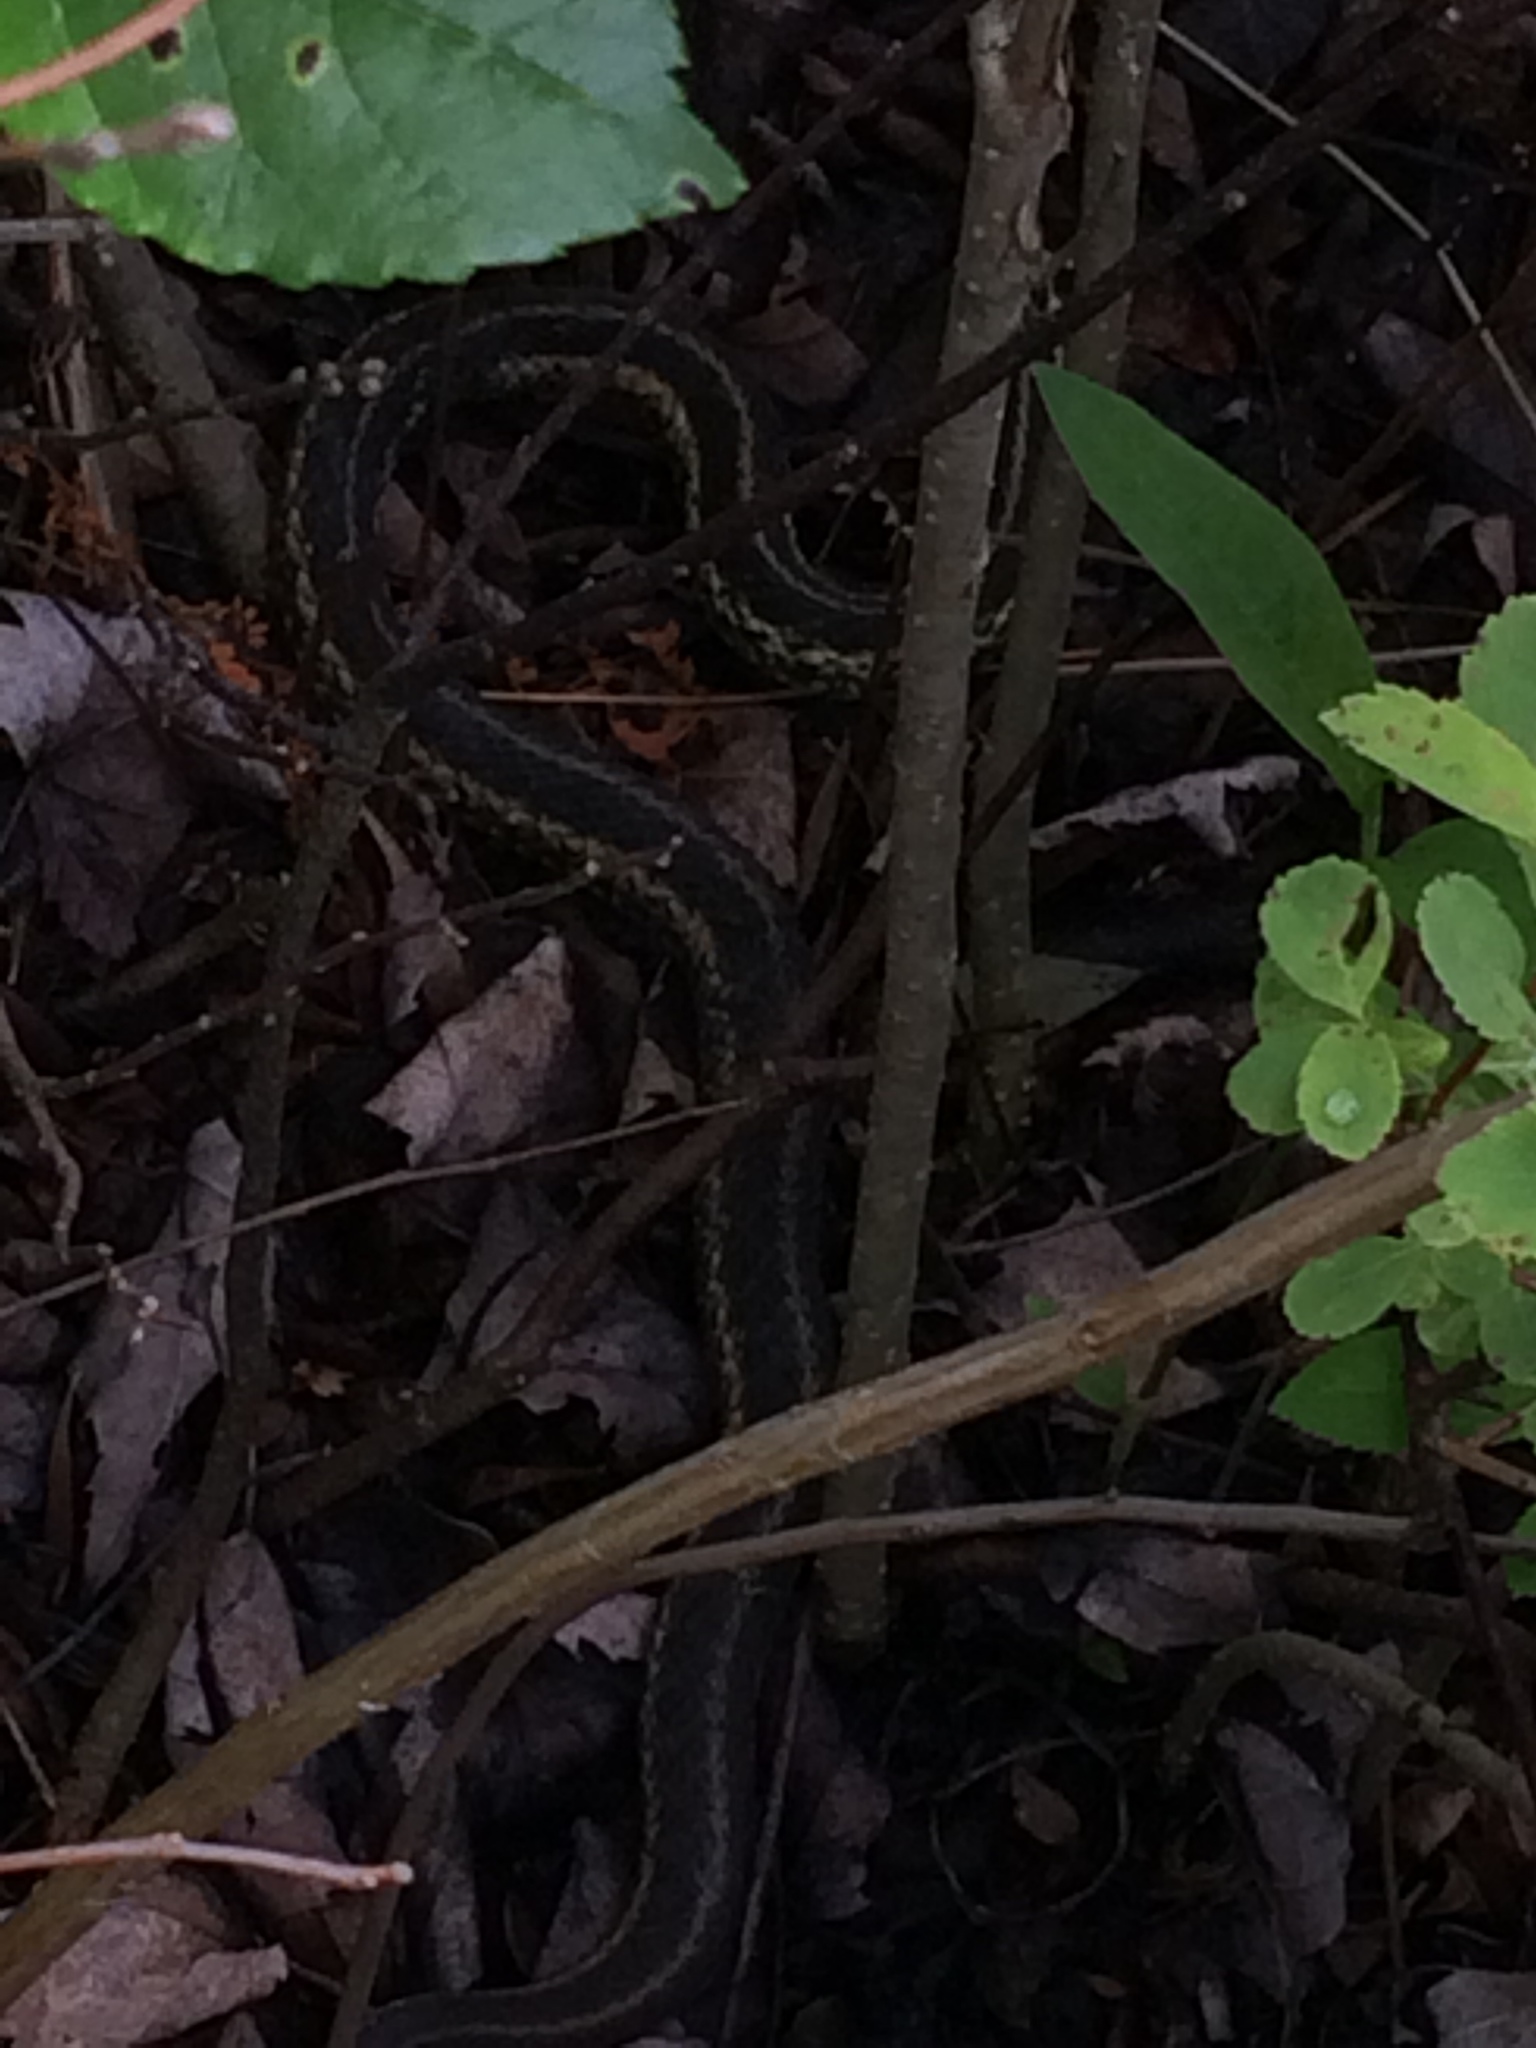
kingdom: Animalia
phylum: Chordata
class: Squamata
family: Colubridae
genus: Thamnophis
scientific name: Thamnophis sirtalis
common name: Common garter snake
